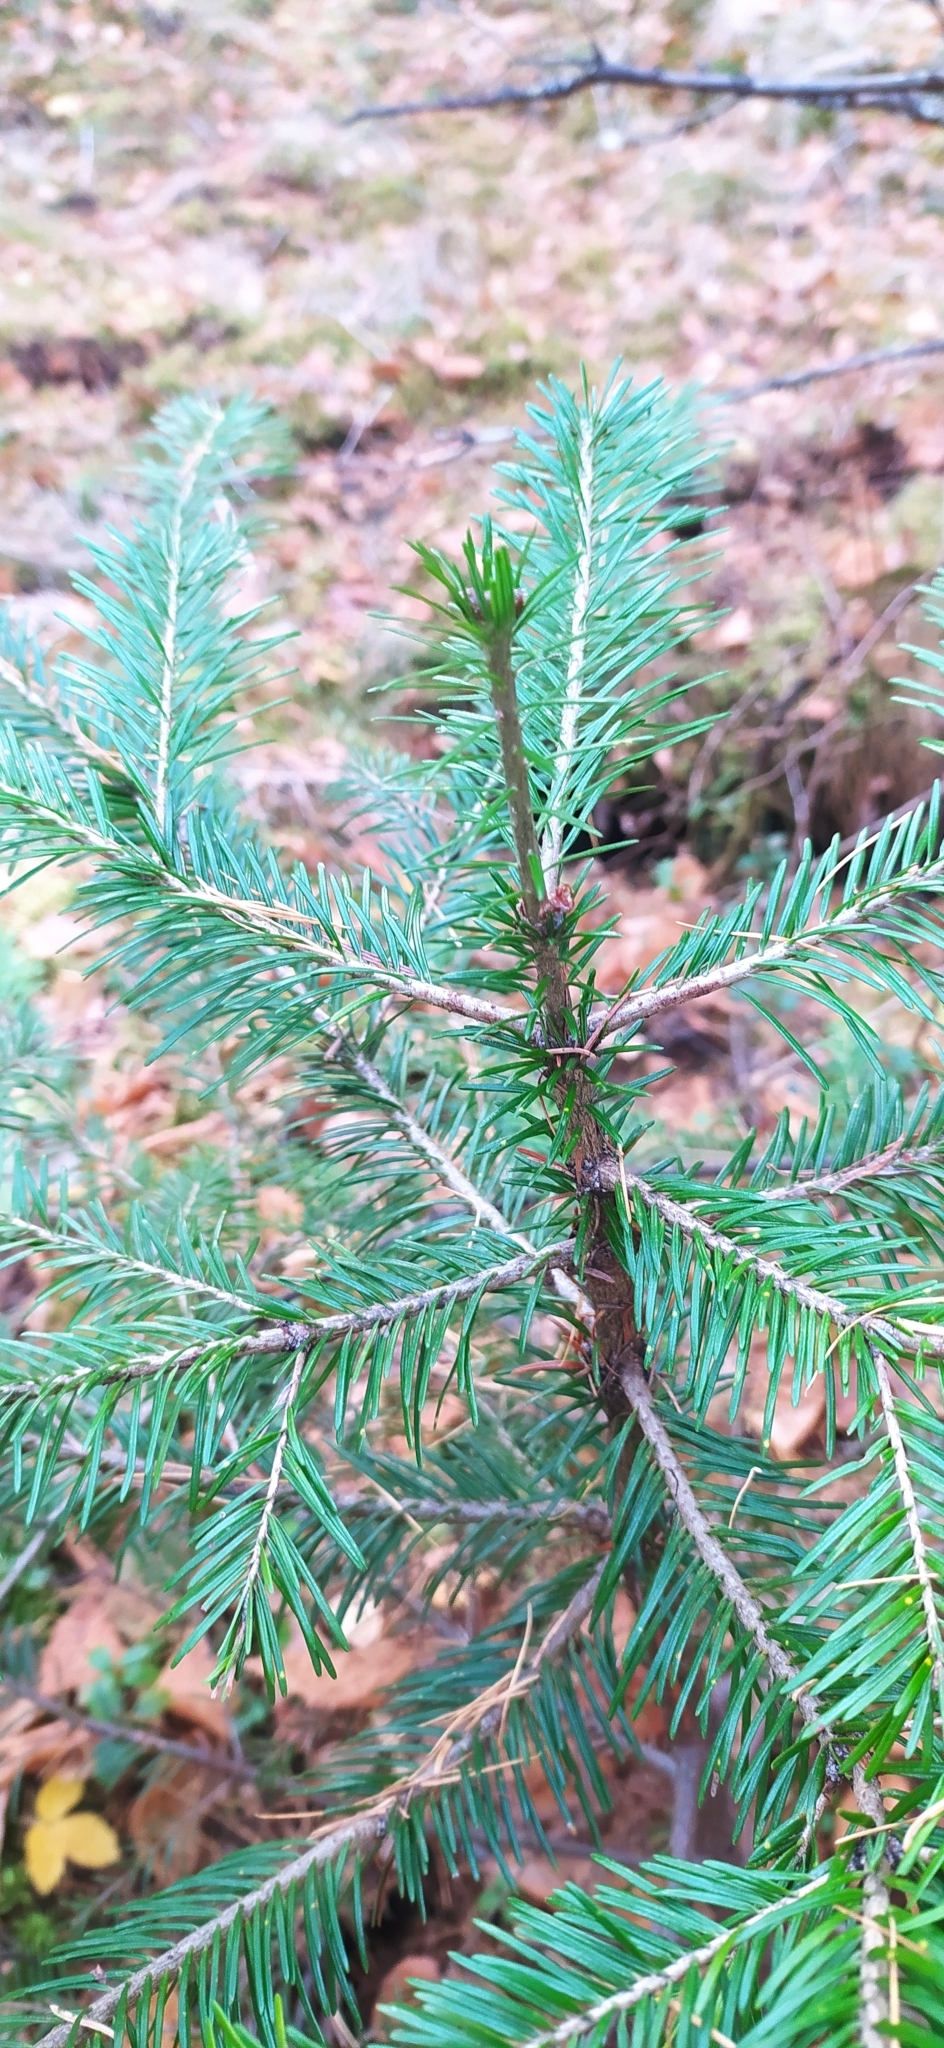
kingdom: Plantae
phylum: Tracheophyta
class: Pinopsida
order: Pinales
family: Pinaceae
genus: Abies
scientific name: Abies sibirica
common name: Siberian fir
